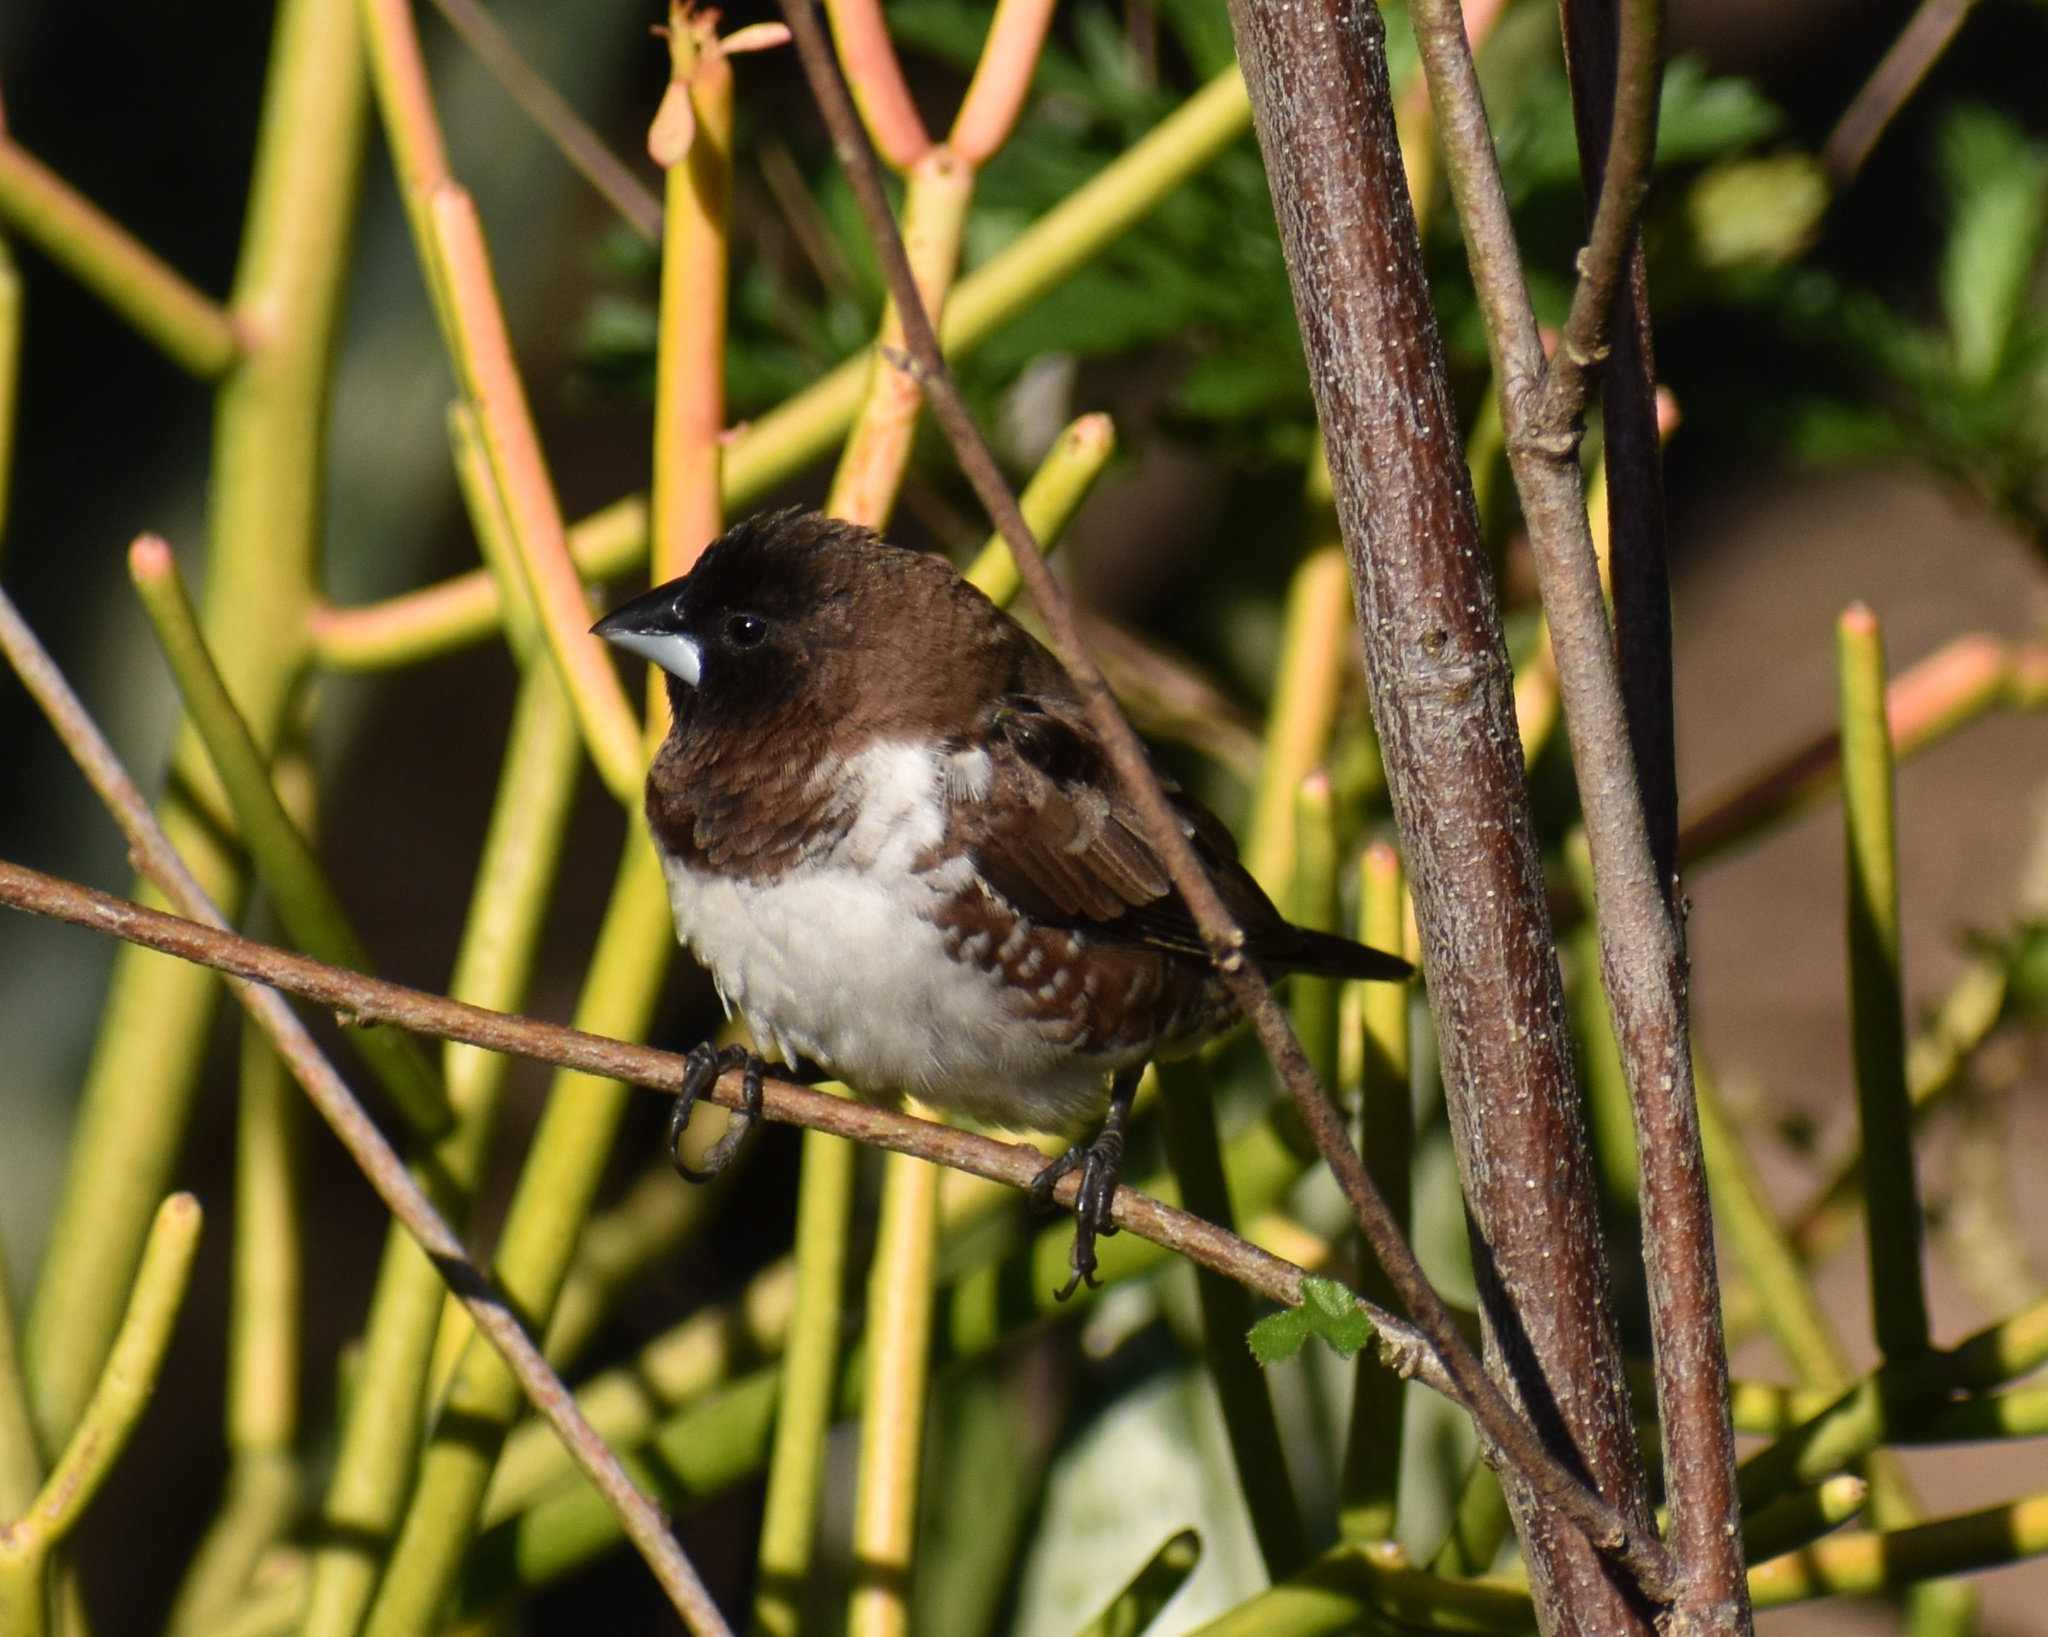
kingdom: Animalia
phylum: Chordata
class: Aves
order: Passeriformes
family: Estrildidae
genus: Lonchura
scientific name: Lonchura cucullata
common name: Bronze mannikin
